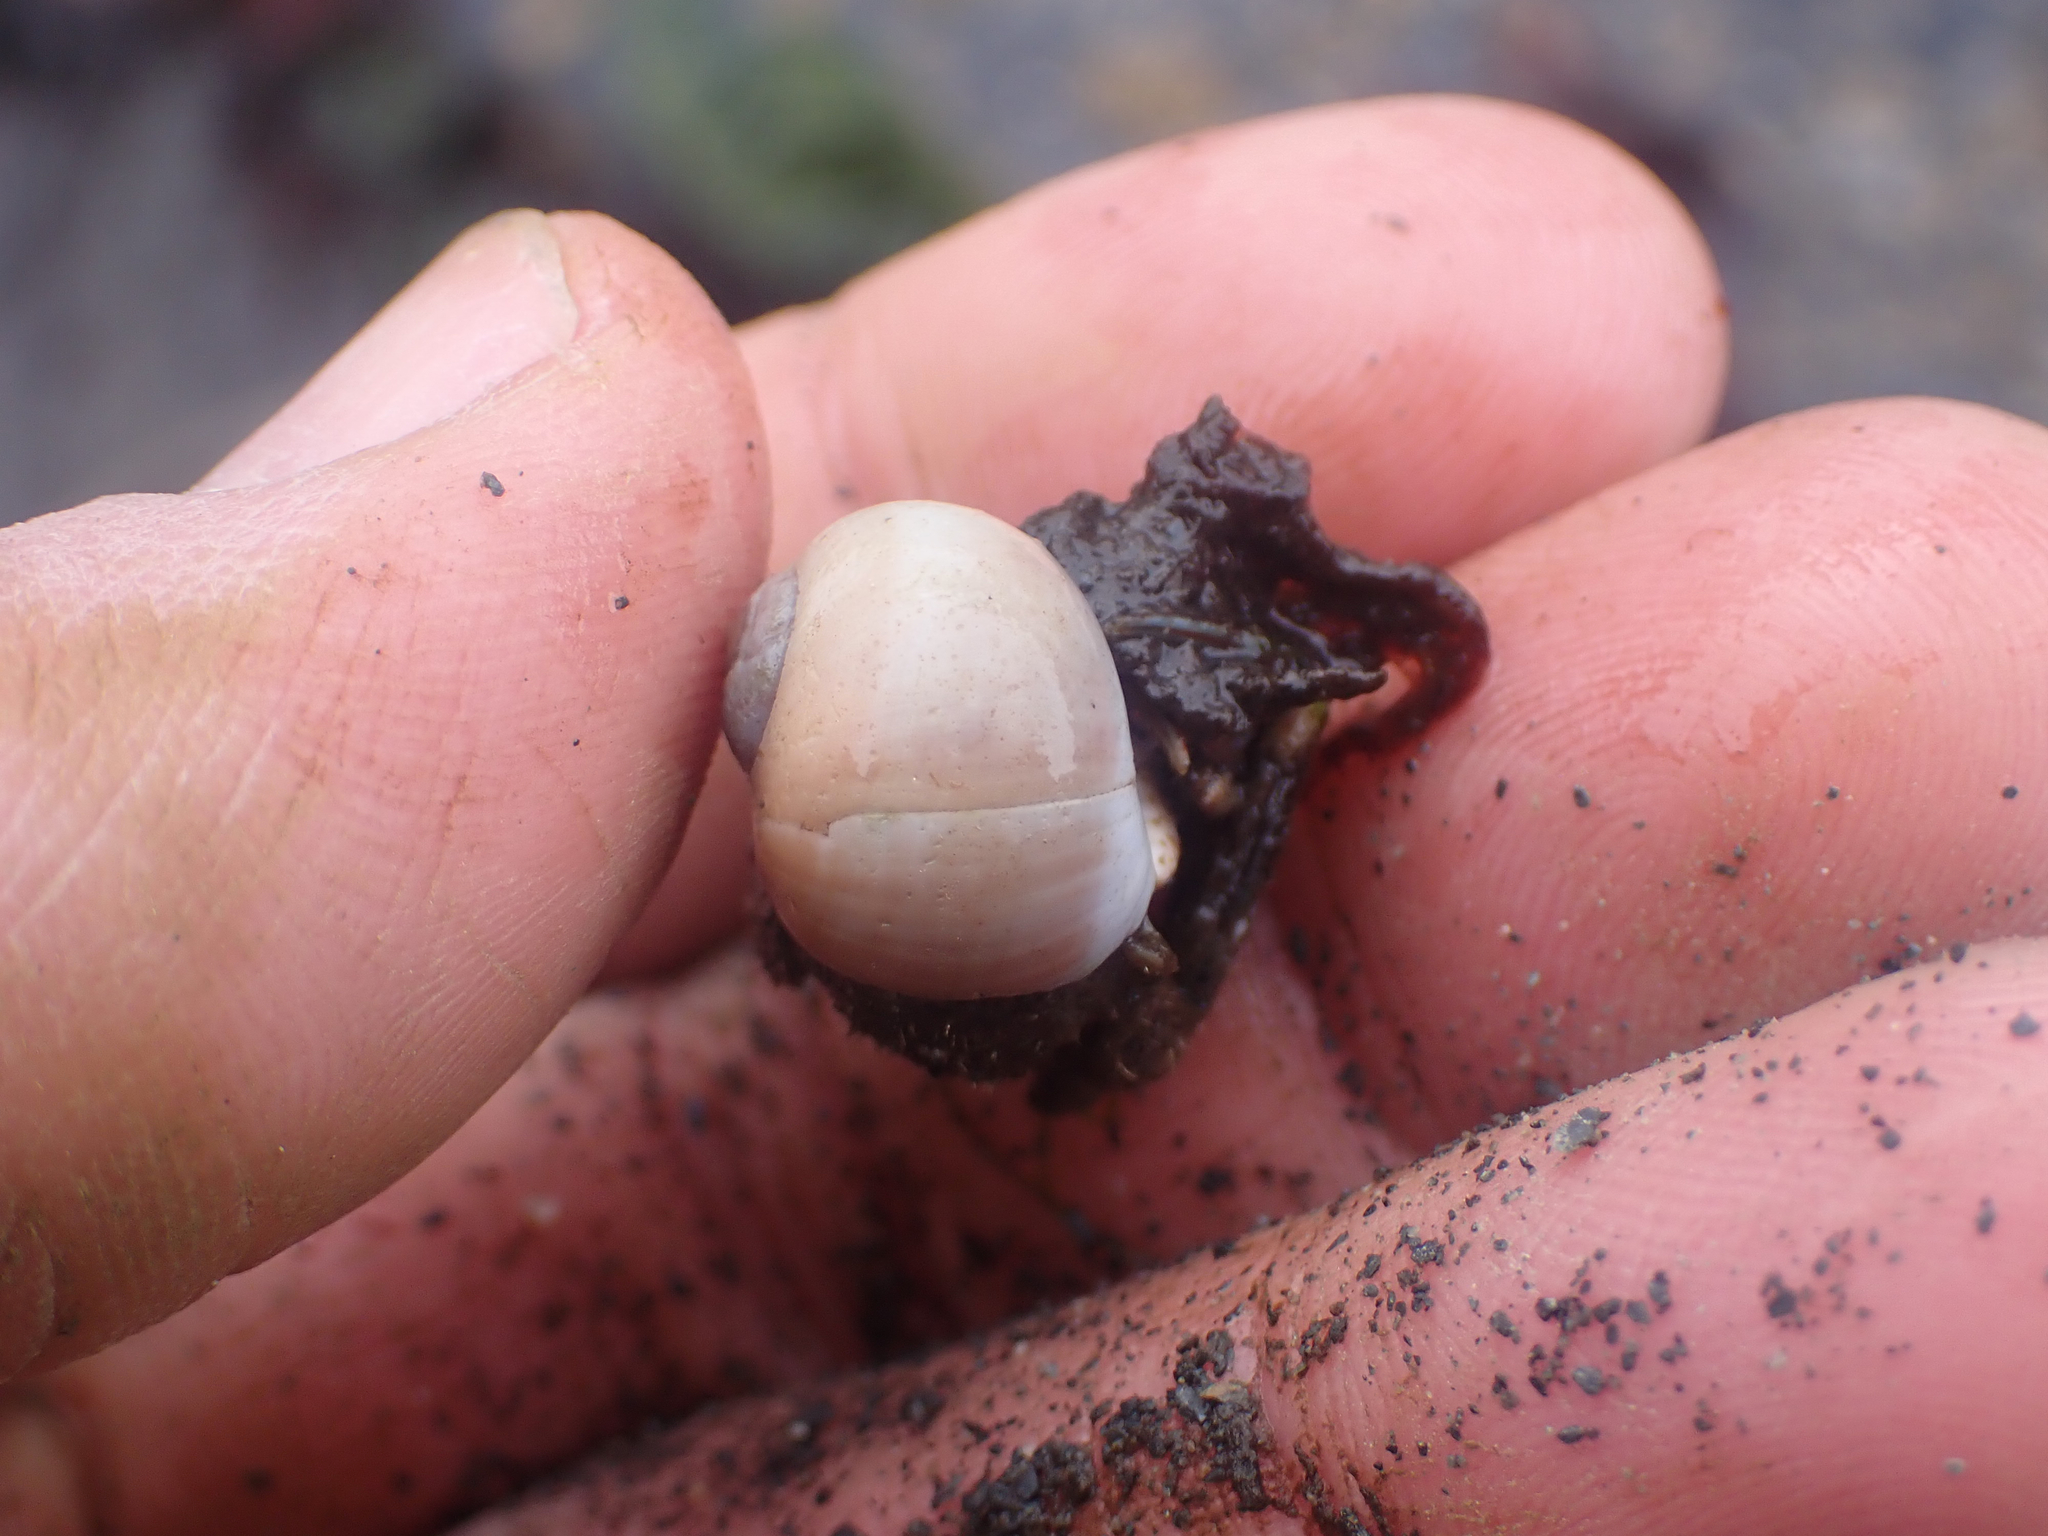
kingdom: Animalia
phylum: Arthropoda
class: Malacostraca
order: Decapoda
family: Paguridae
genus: Pagurus
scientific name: Pagurus hirsutiusculus
